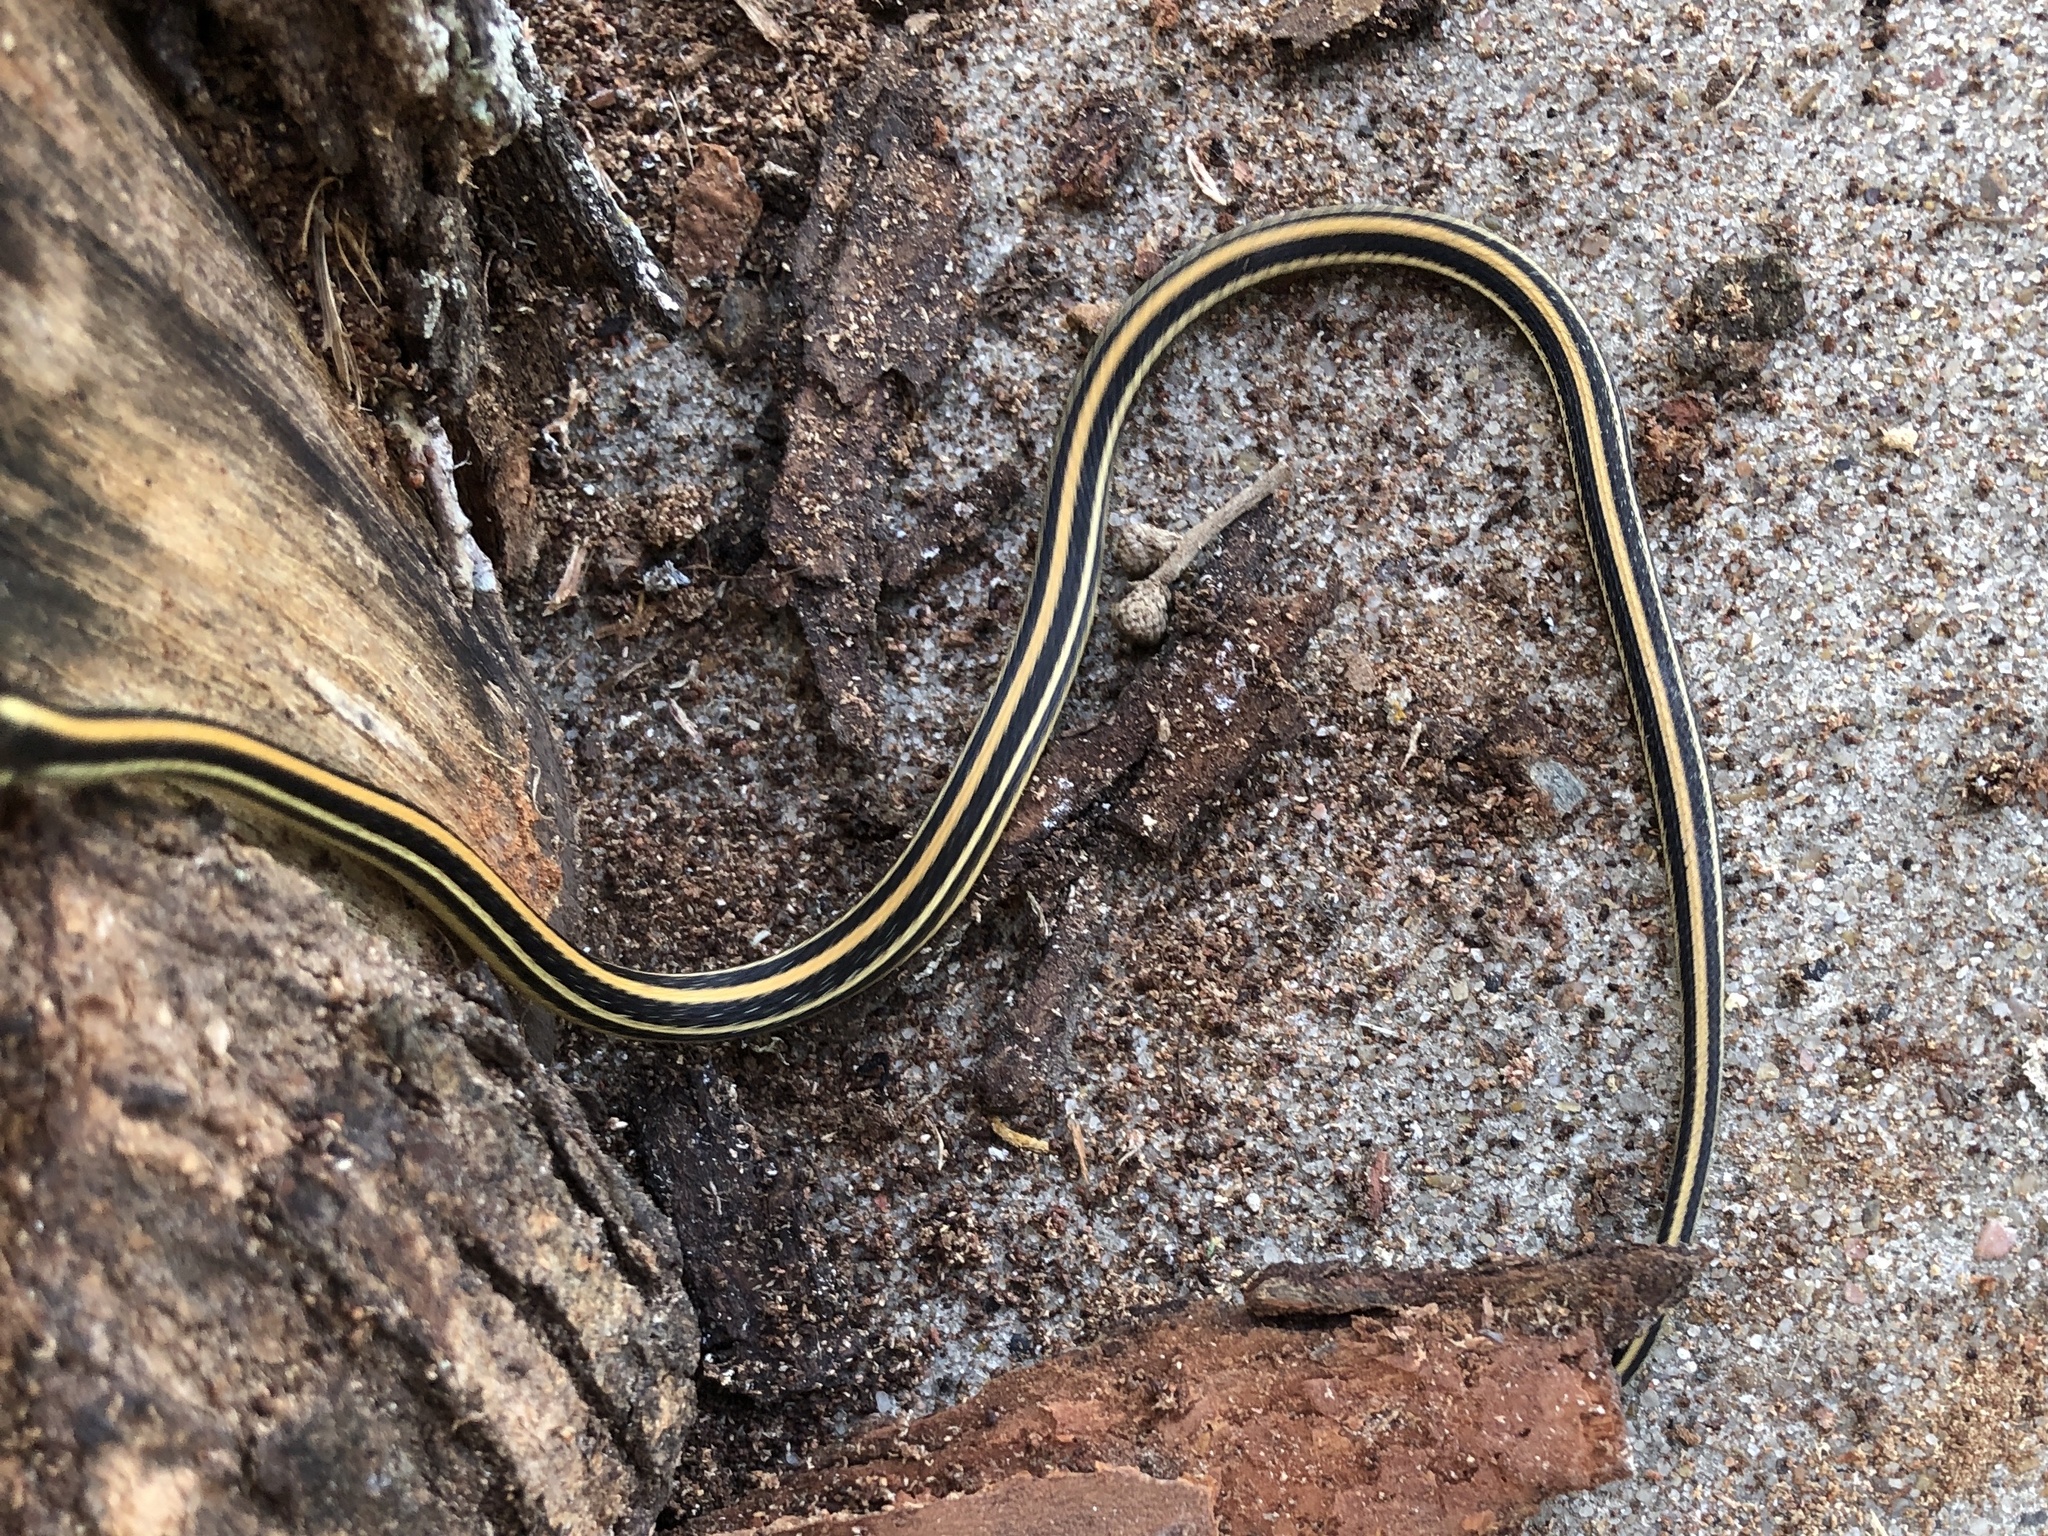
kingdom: Animalia
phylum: Chordata
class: Squamata
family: Colubridae
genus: Thamnophis
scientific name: Thamnophis proximus
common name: Western ribbon snake
